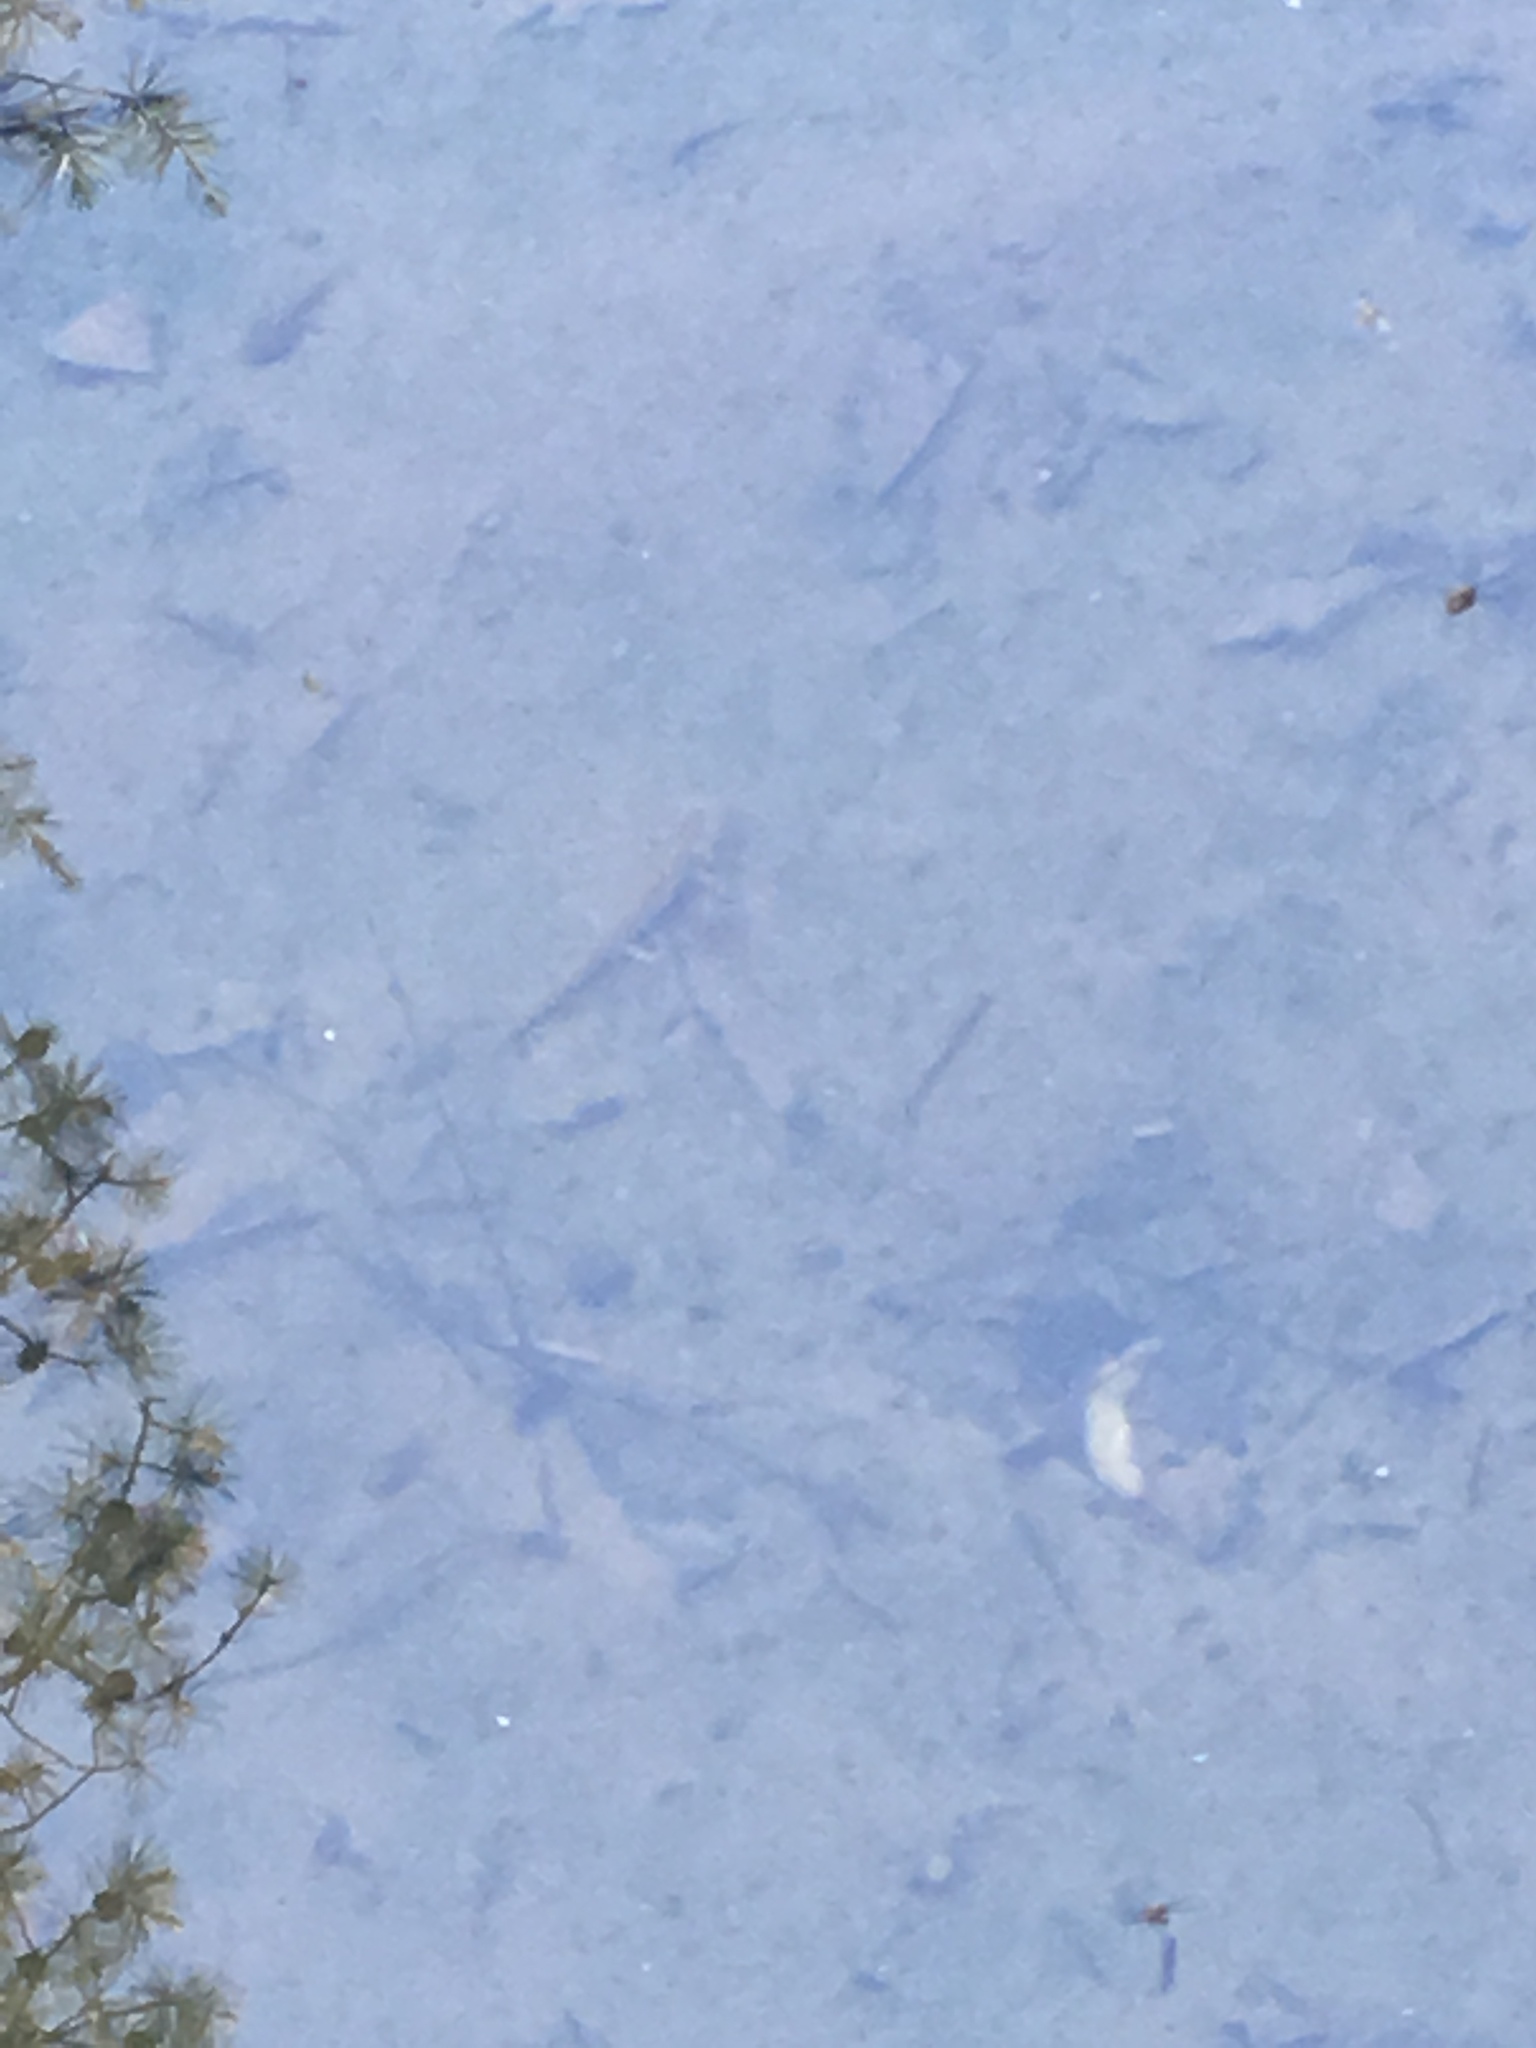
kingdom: Animalia
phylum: Chordata
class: Amphibia
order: Caudata
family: Salamandridae
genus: Notophthalmus
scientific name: Notophthalmus viridescens
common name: Eastern newt
